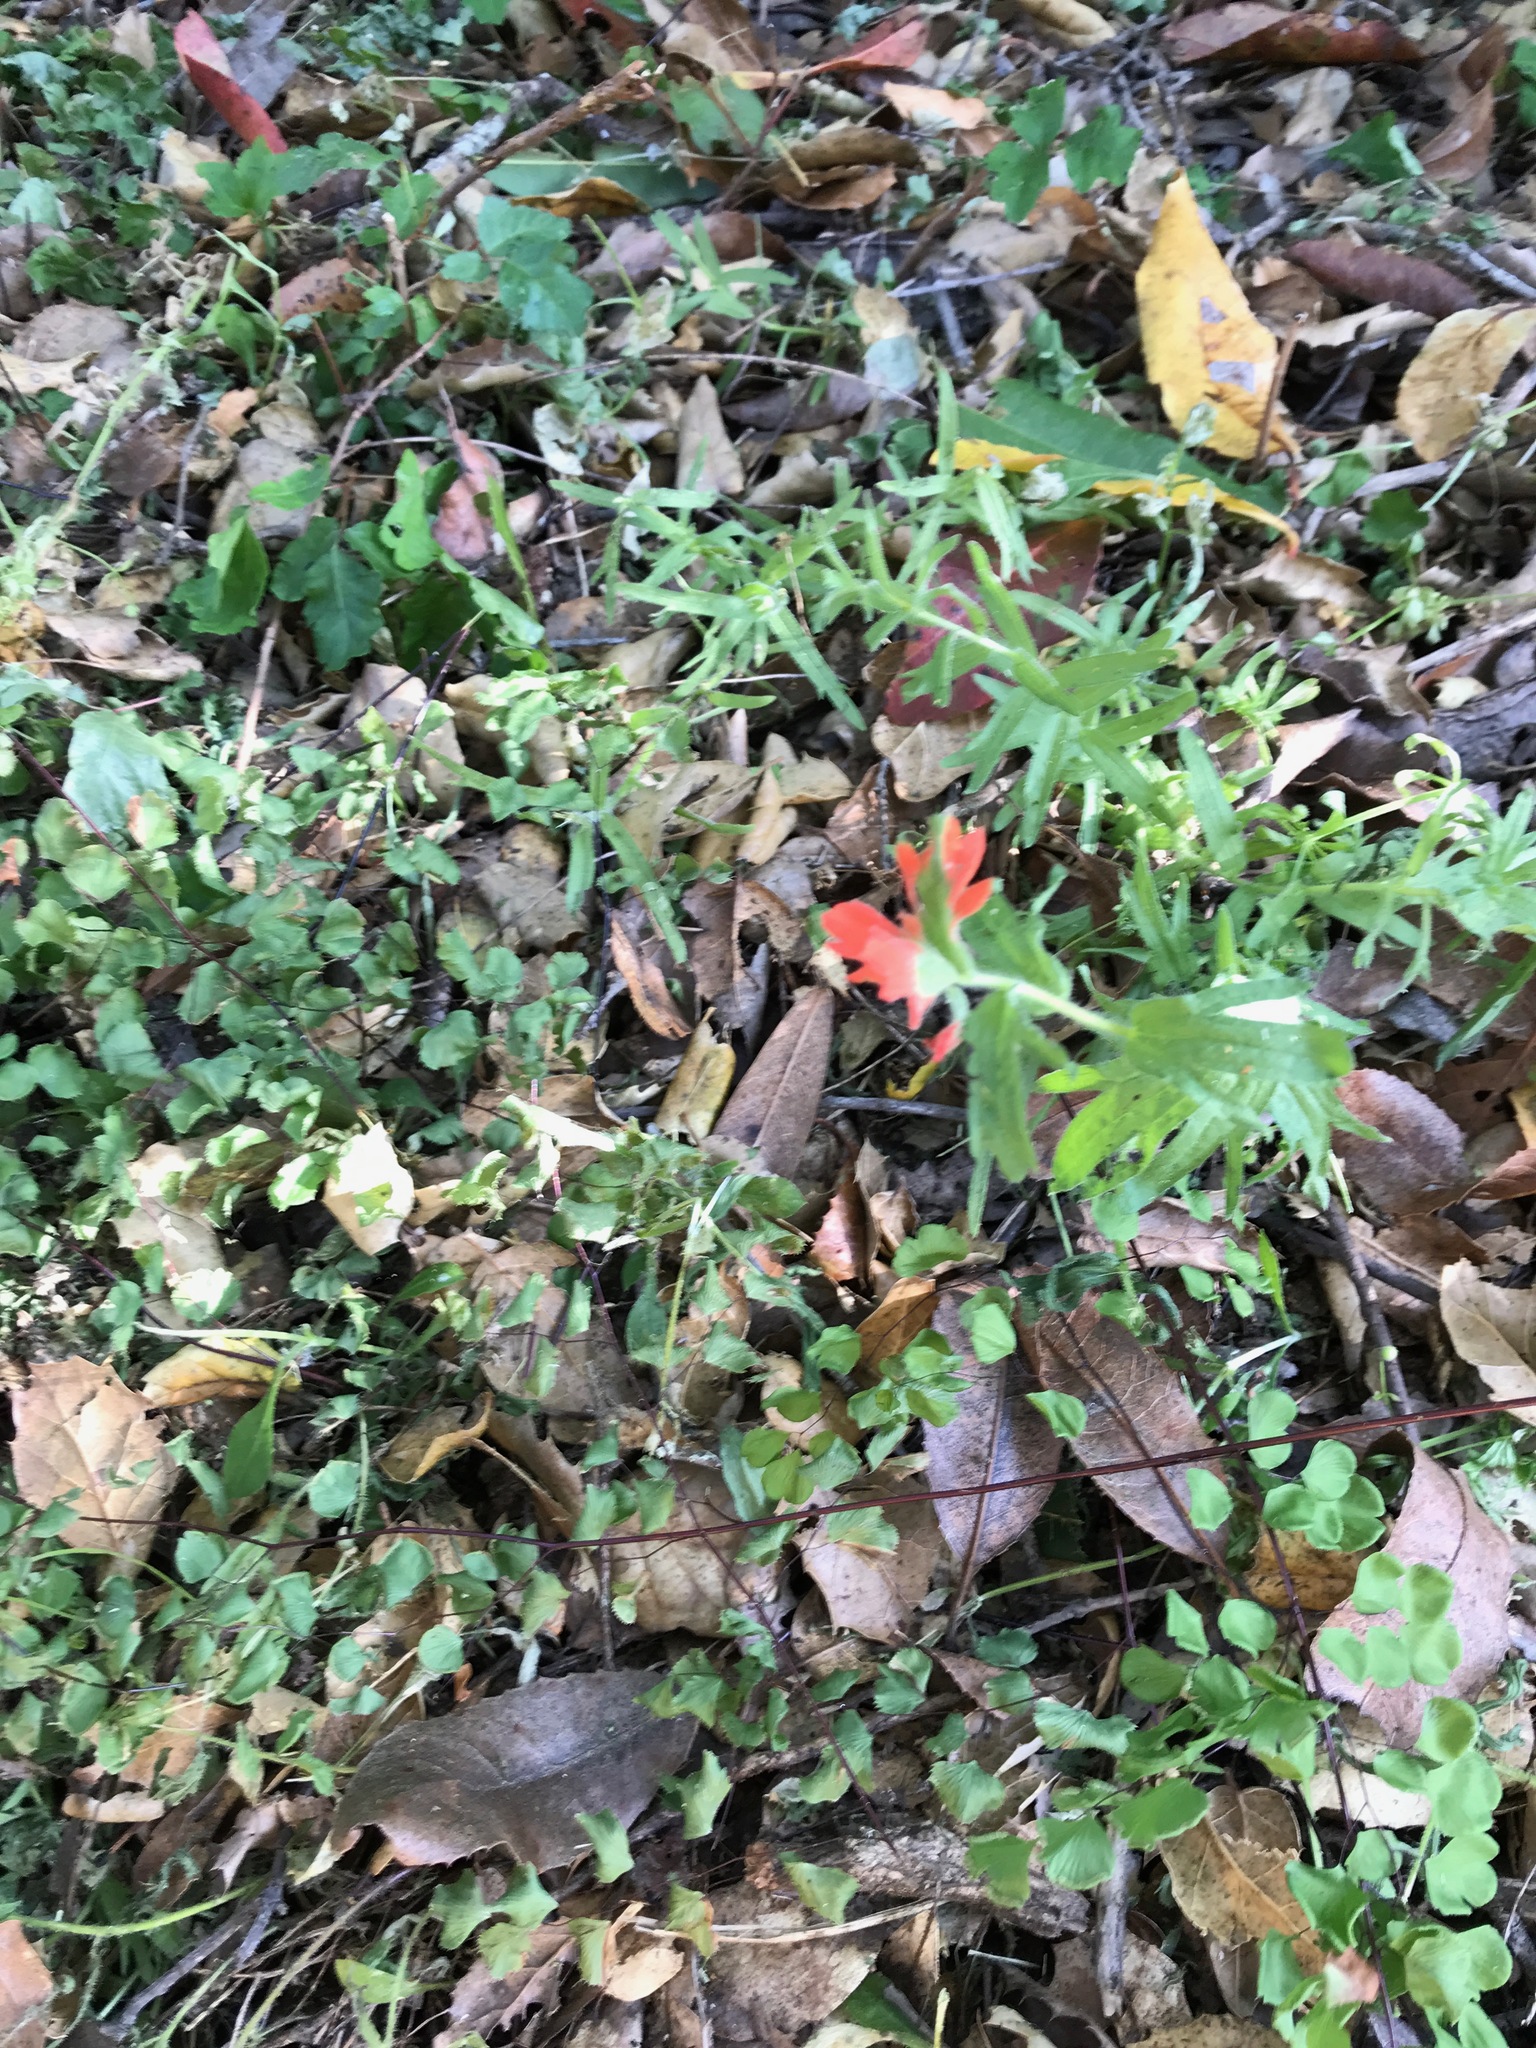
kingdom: Plantae
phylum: Tracheophyta
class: Magnoliopsida
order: Lamiales
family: Orobanchaceae
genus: Castilleja
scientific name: Castilleja affinis
